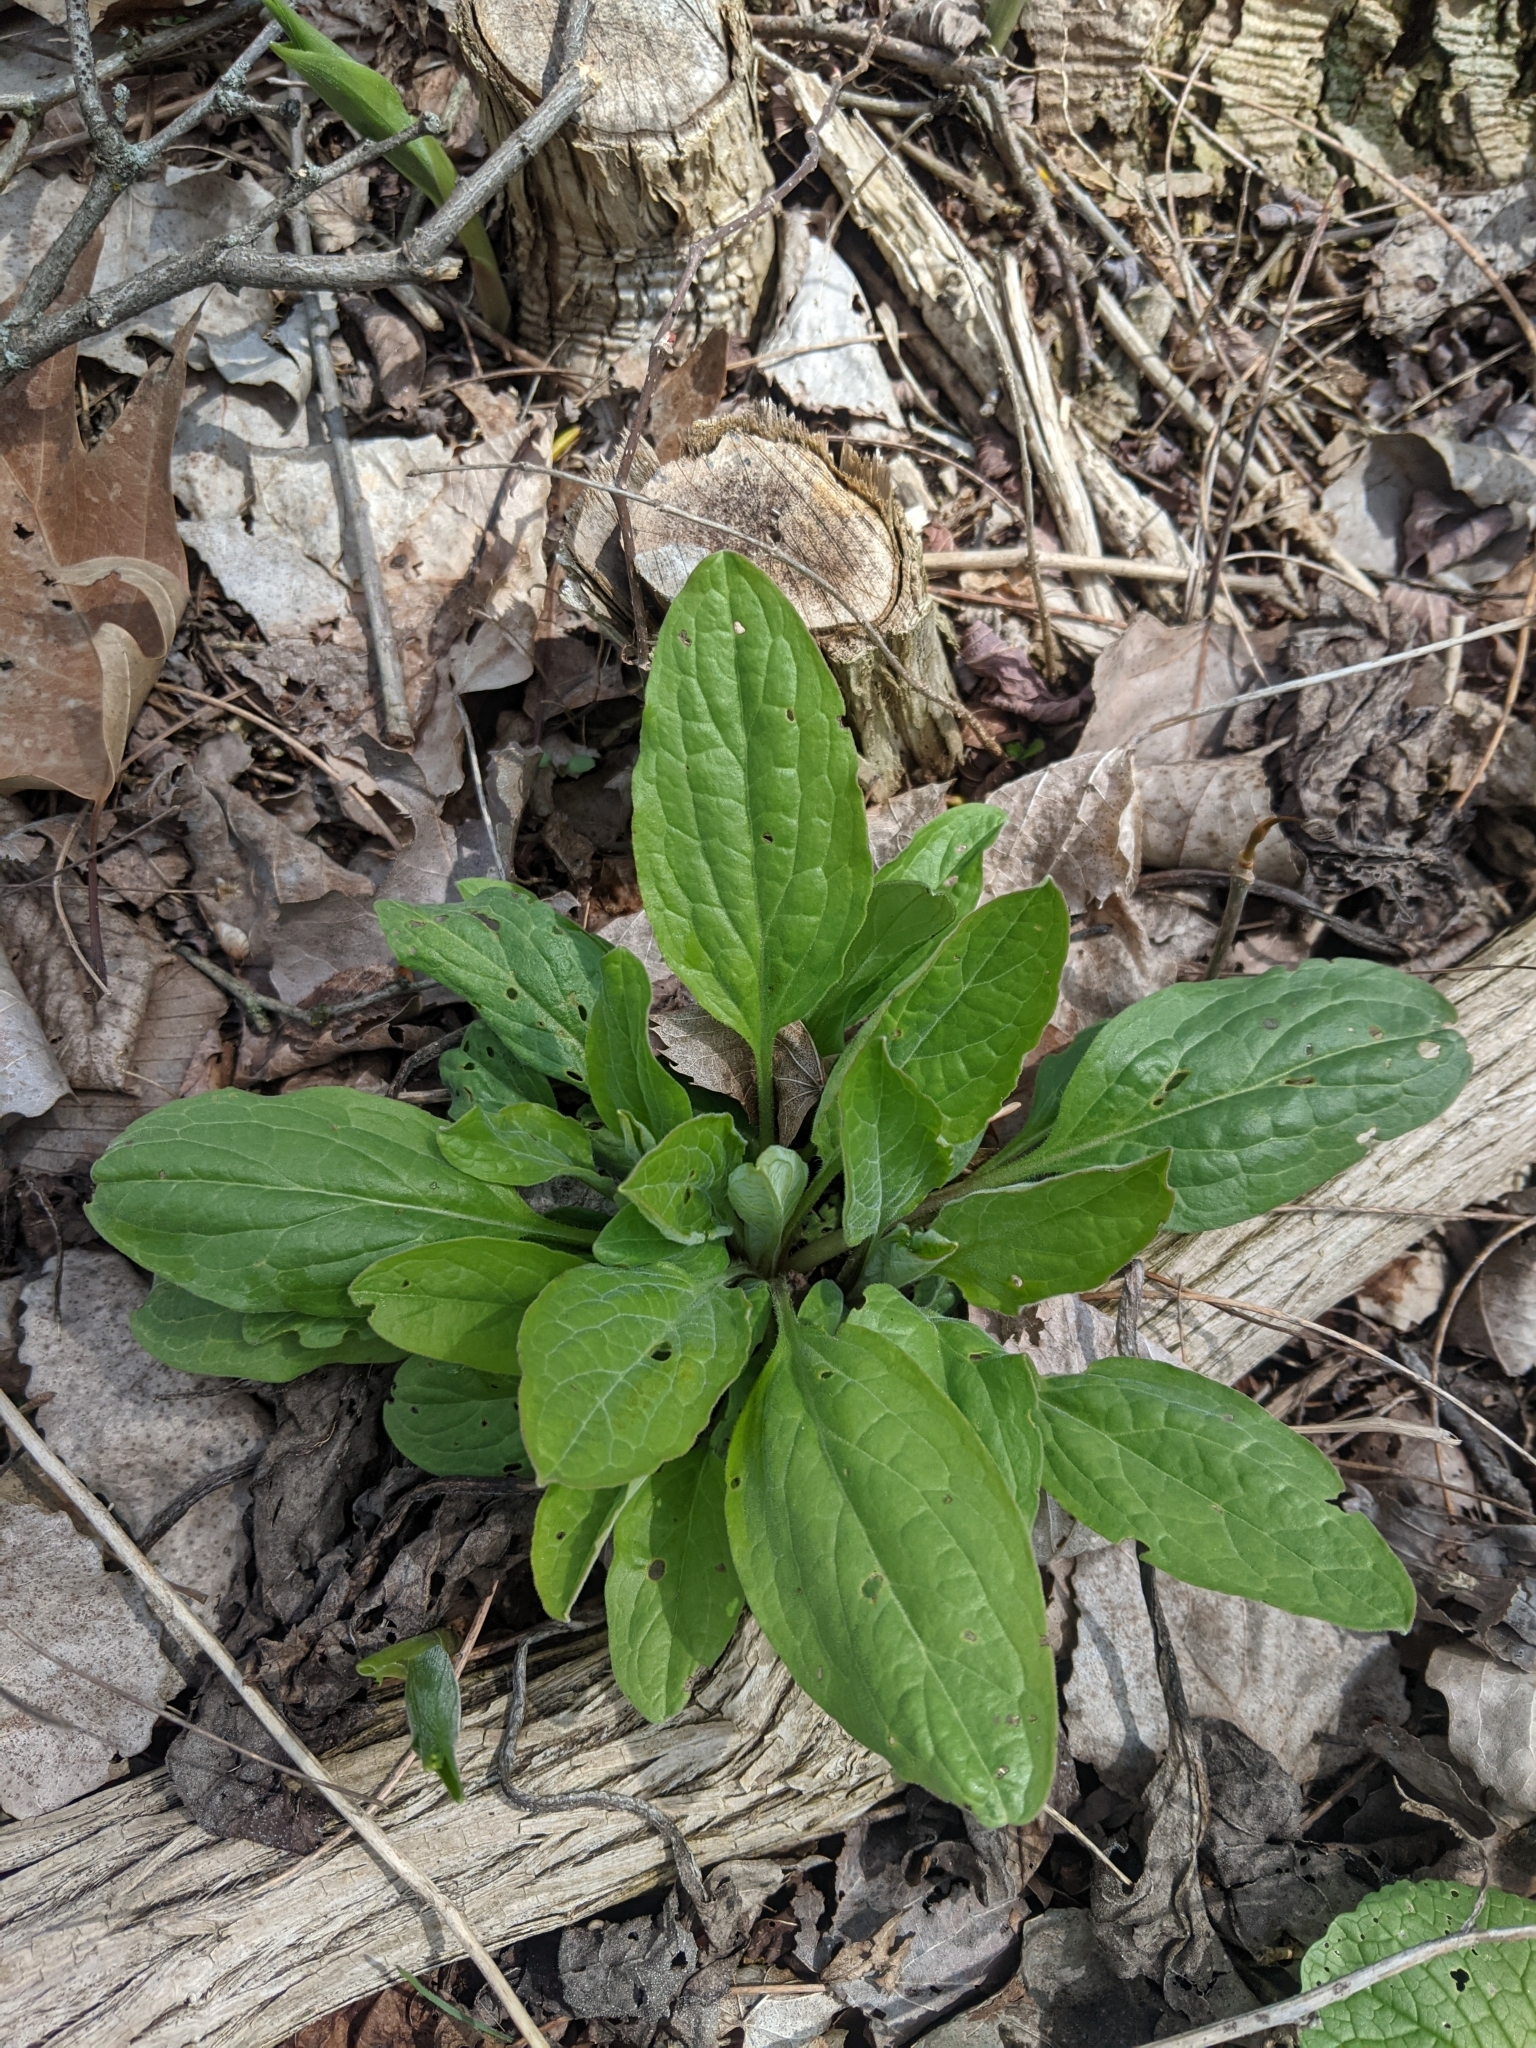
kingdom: Plantae
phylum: Tracheophyta
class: Magnoliopsida
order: Boraginales
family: Boraginaceae
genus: Hackelia
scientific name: Hackelia virginiana
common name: Beggar's-lice
